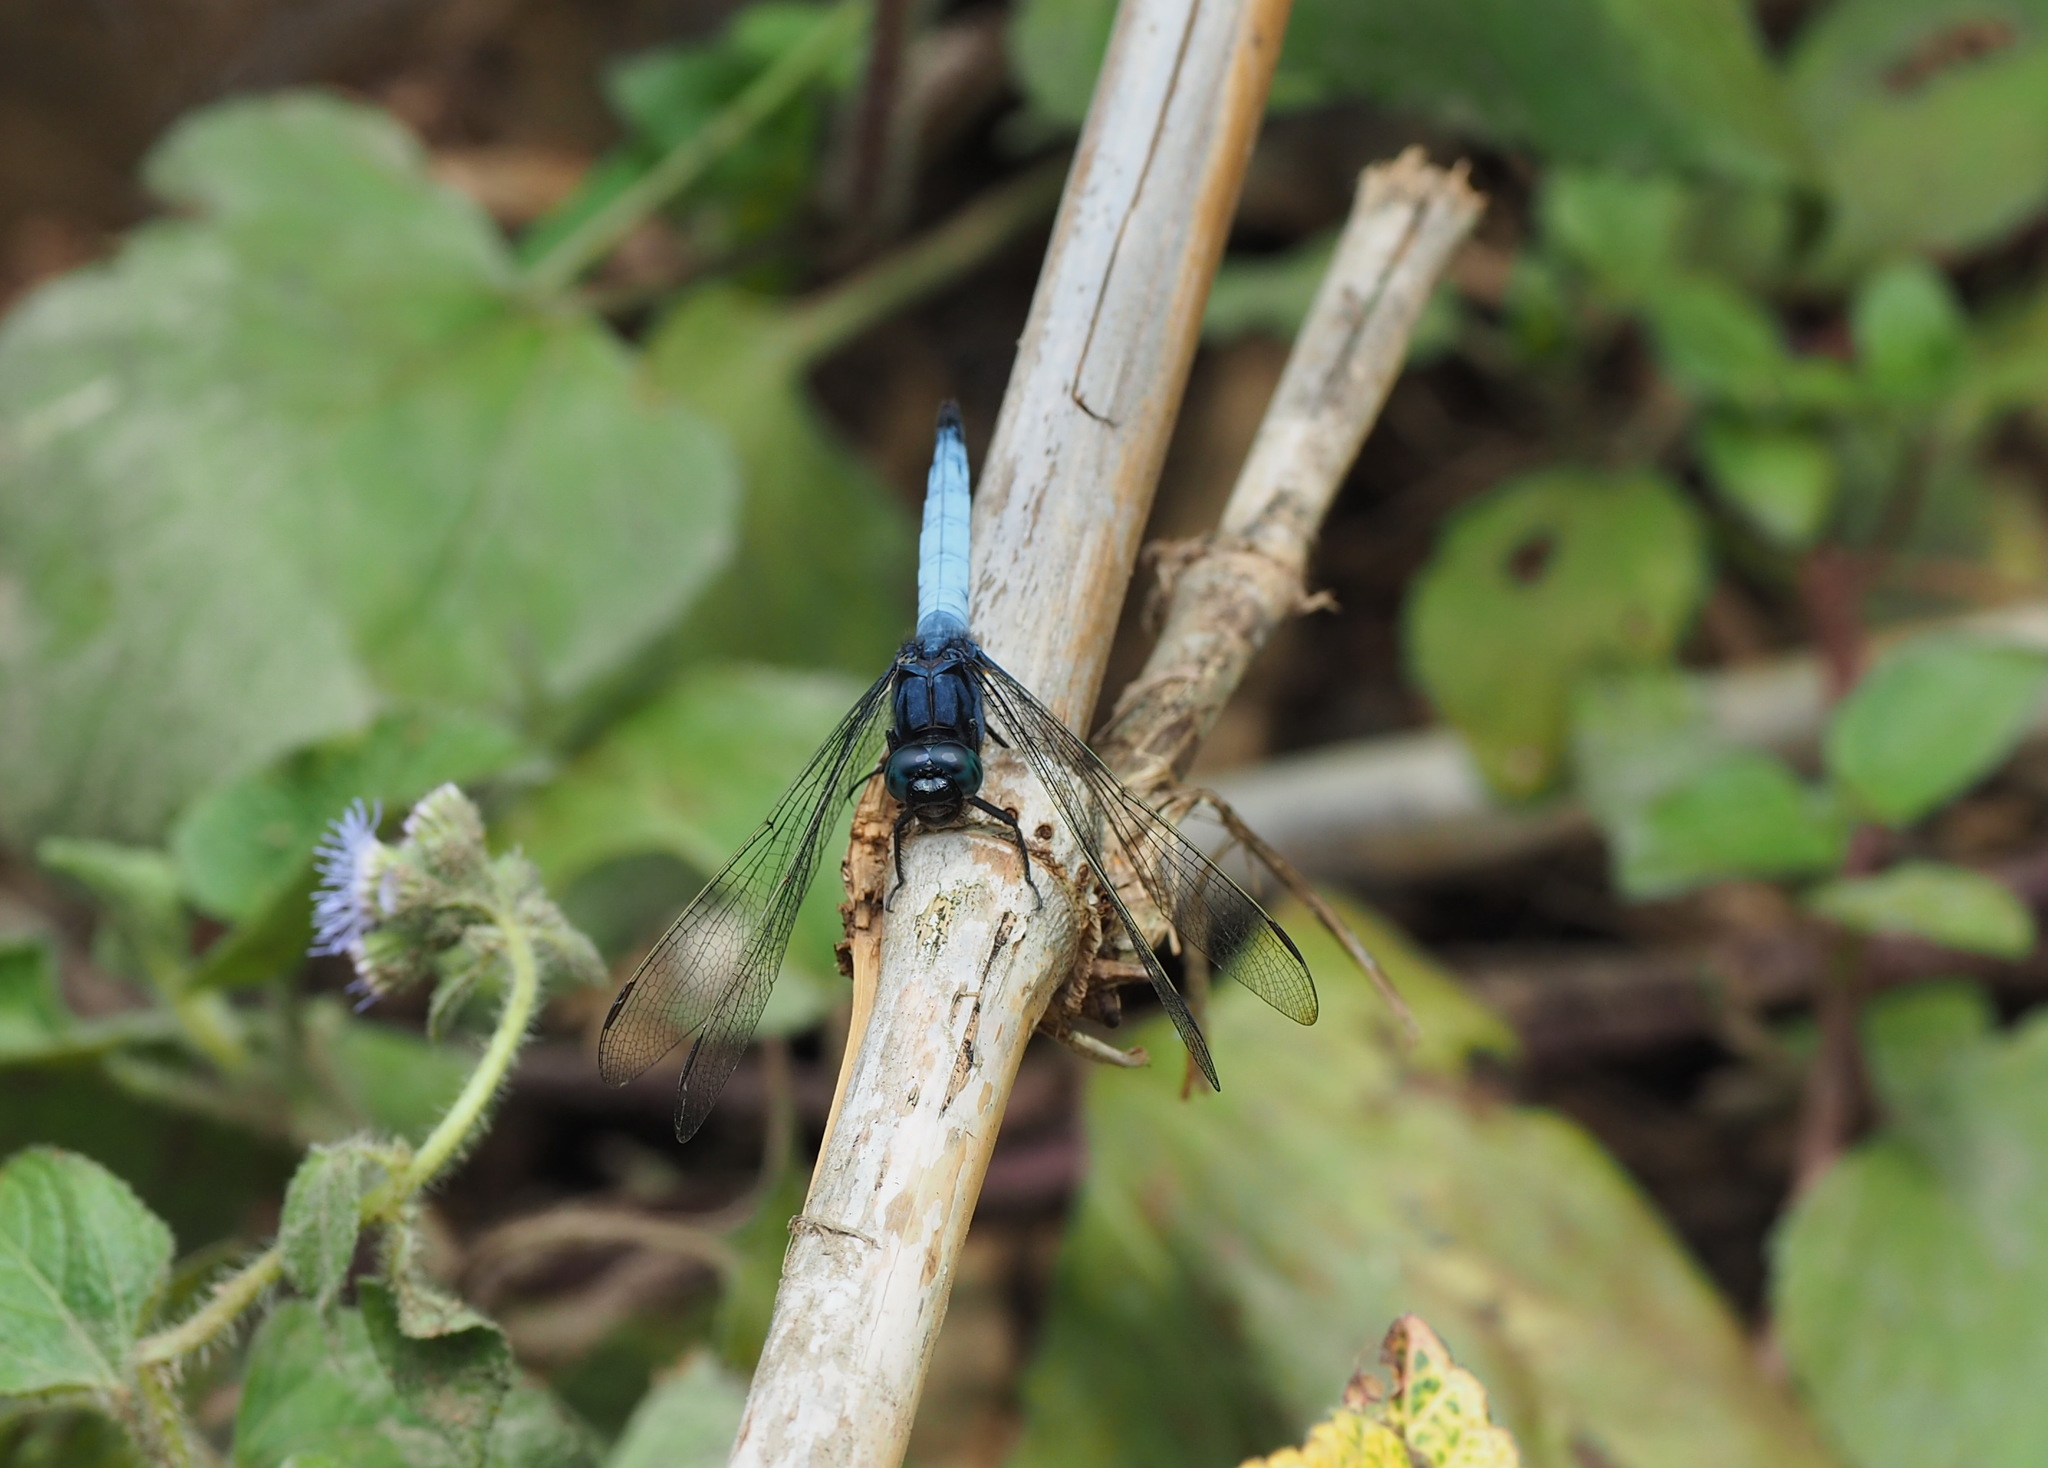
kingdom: Animalia
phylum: Arthropoda
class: Insecta
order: Odonata
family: Libellulidae
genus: Orthetrum
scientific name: Orthetrum glaucum
